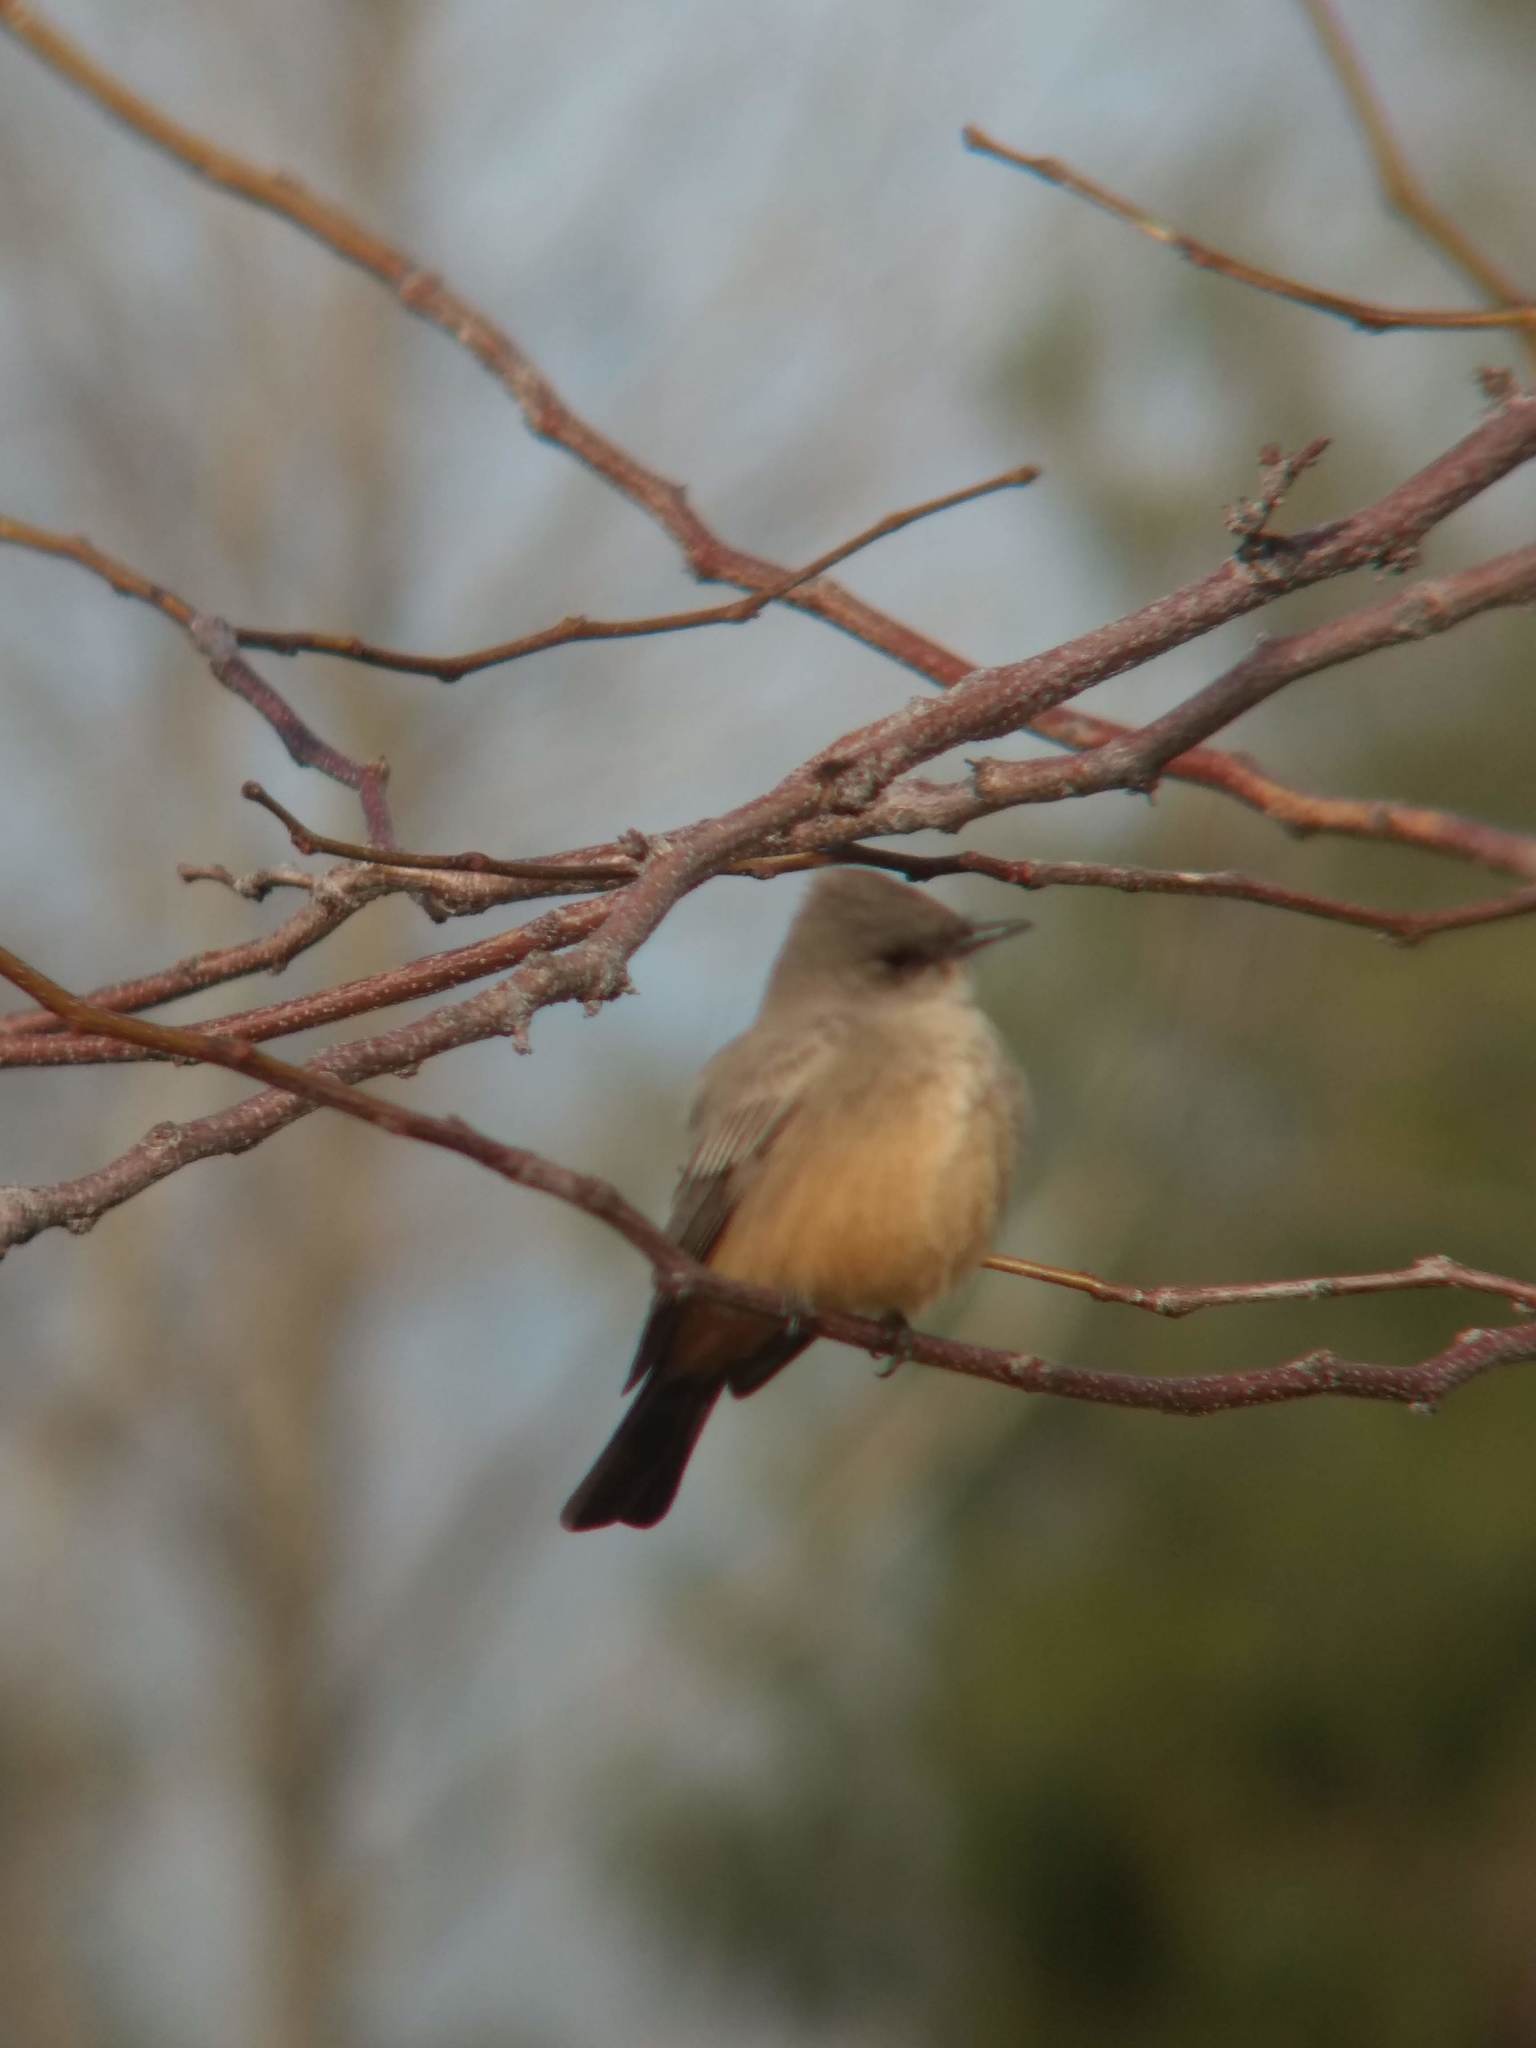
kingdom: Animalia
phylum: Chordata
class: Aves
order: Passeriformes
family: Tyrannidae
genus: Sayornis
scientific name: Sayornis saya
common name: Say's phoebe
